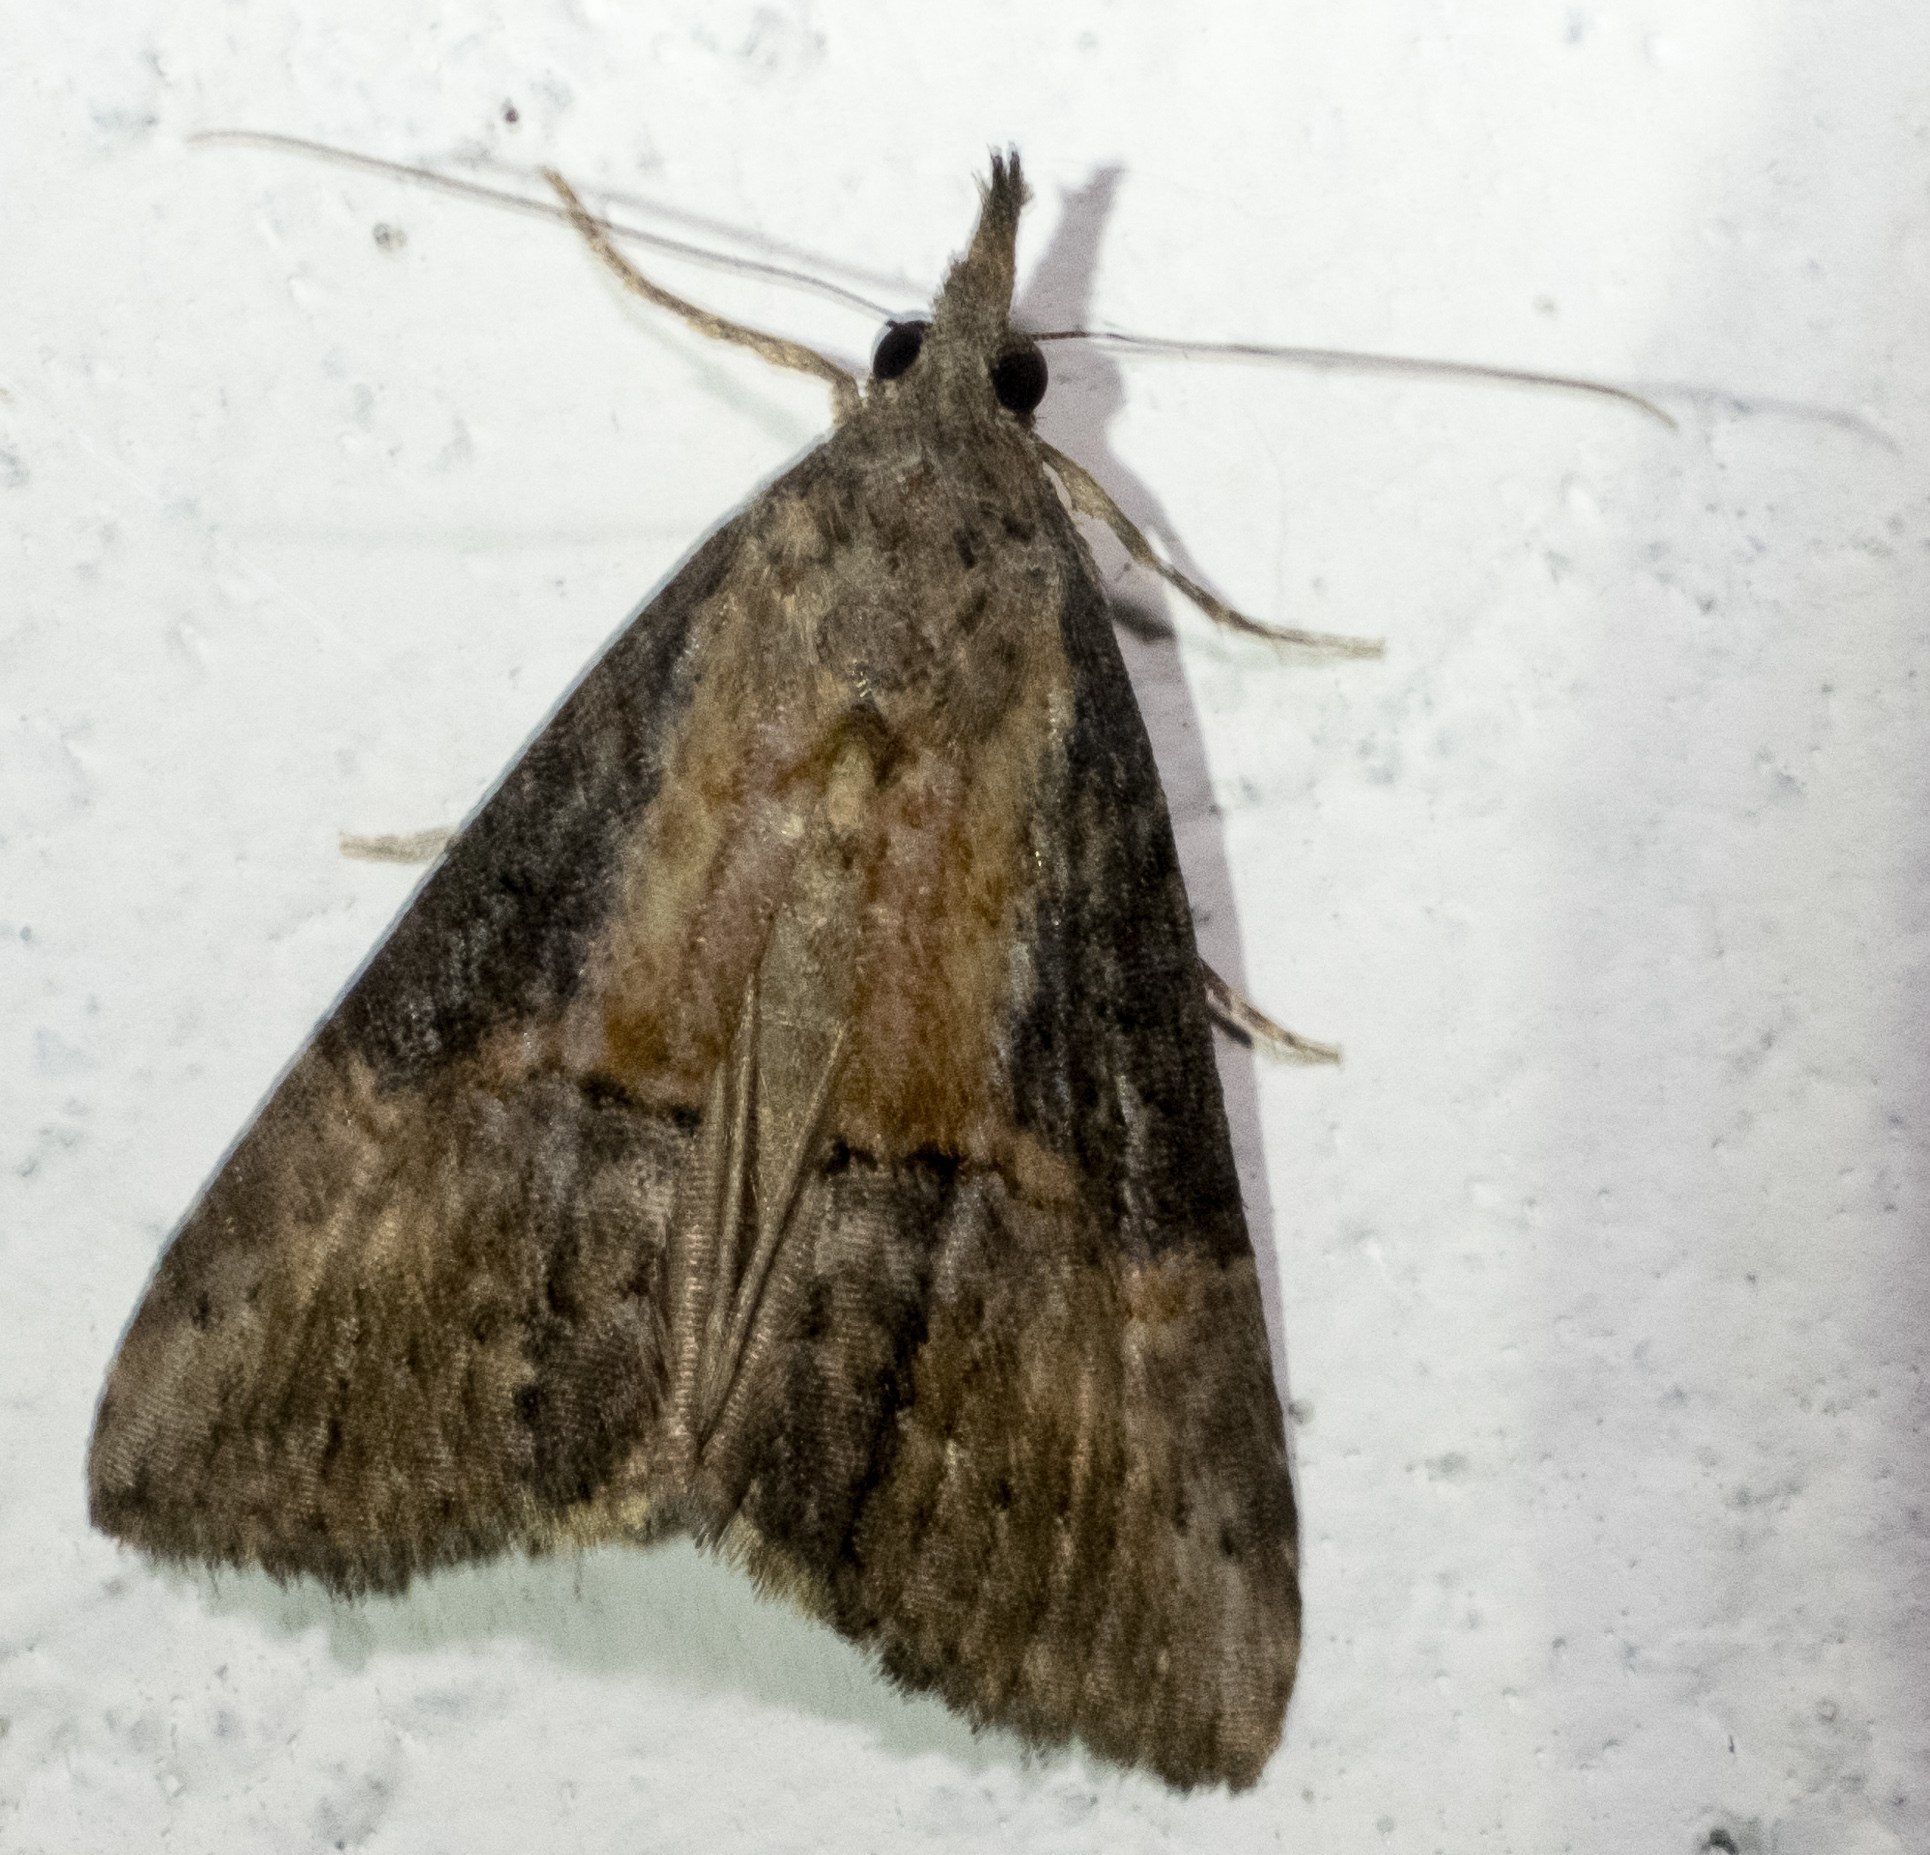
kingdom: Animalia
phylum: Arthropoda
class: Insecta
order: Lepidoptera
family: Erebidae
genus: Hypena
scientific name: Hypena scabra
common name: Green cloverworm
